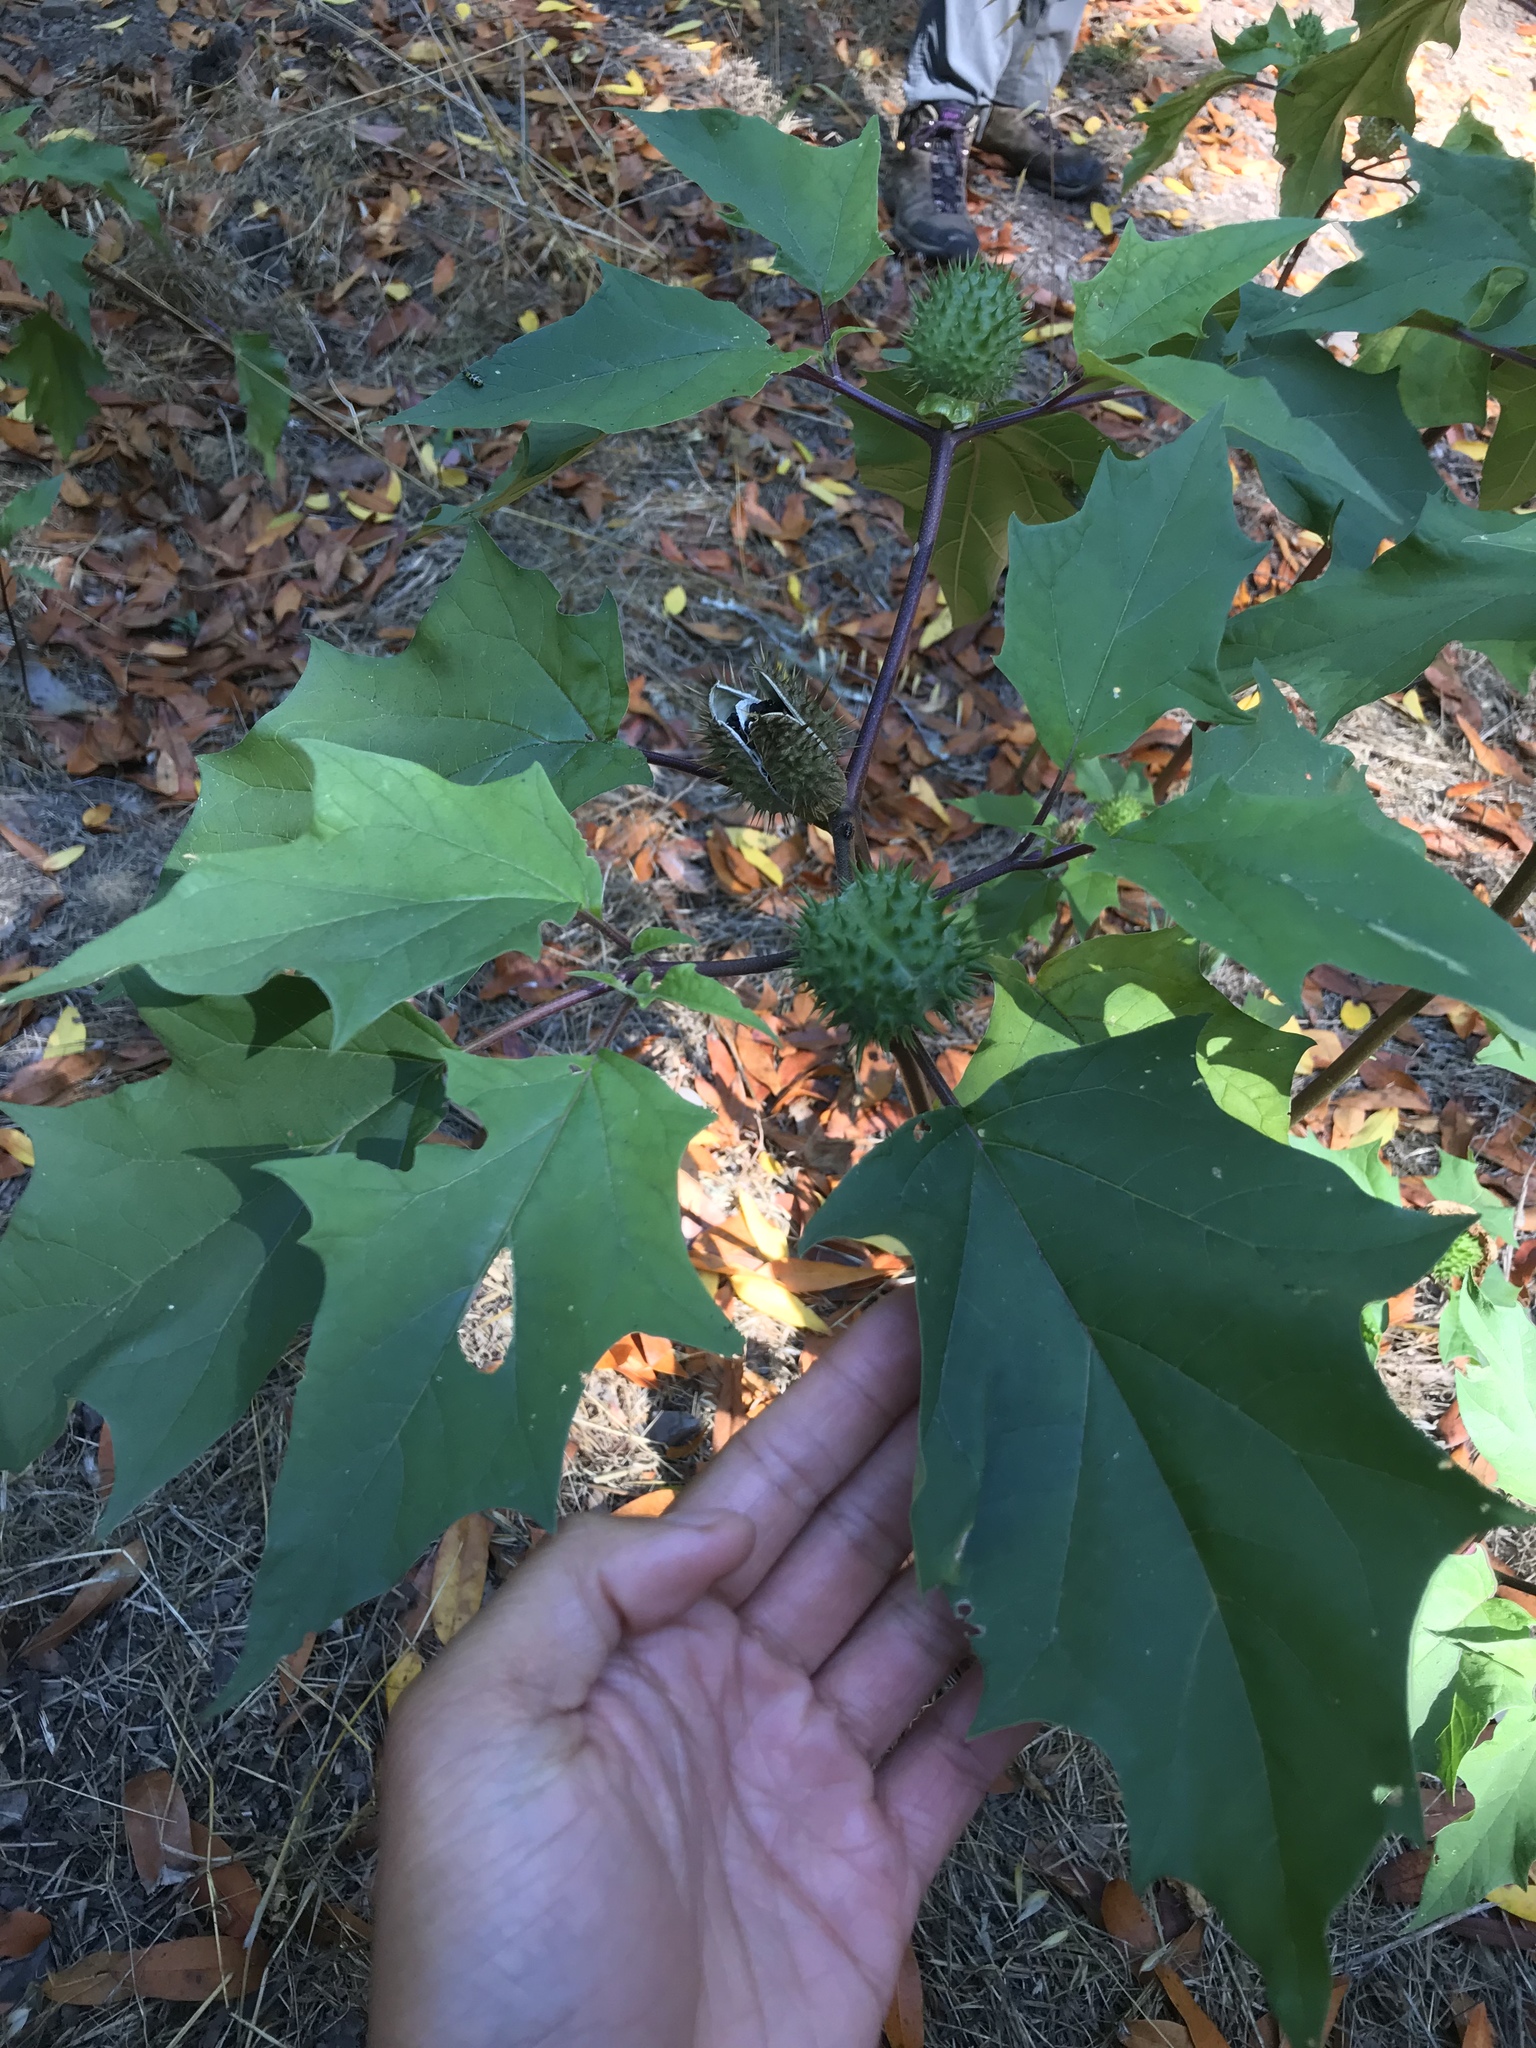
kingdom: Plantae
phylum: Tracheophyta
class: Magnoliopsida
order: Solanales
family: Solanaceae
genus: Datura
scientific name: Datura stramonium
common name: Thorn-apple
